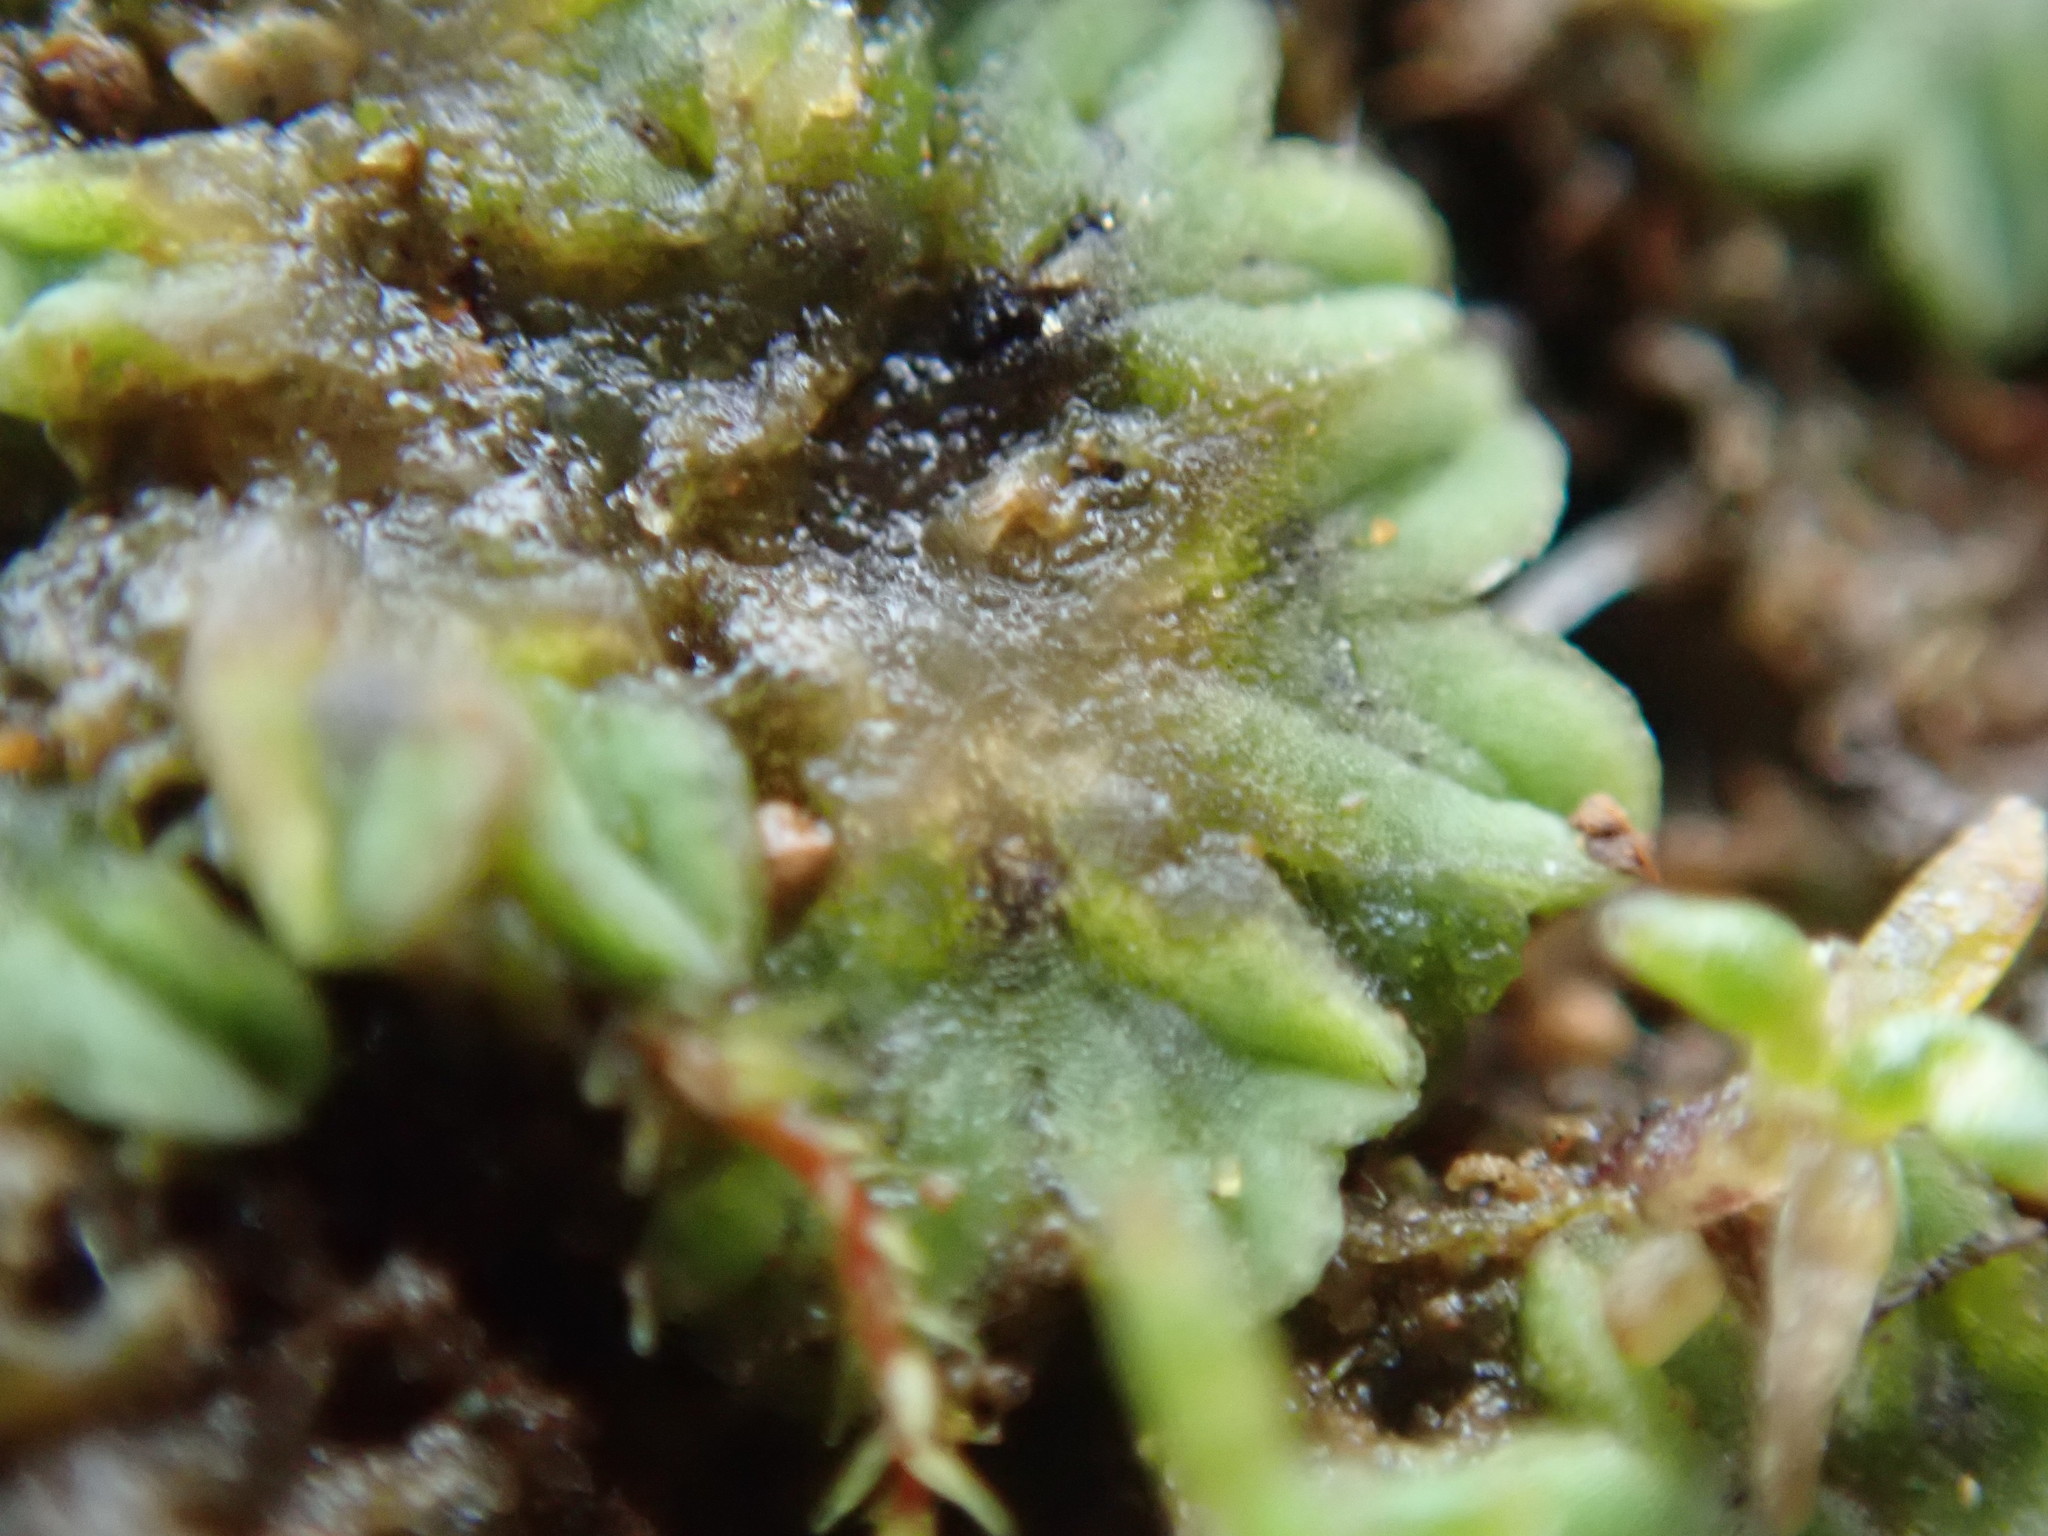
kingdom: Plantae
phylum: Marchantiophyta
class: Marchantiopsida
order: Marchantiales
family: Ricciaceae
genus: Riccia
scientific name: Riccia sorocarpa
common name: Common crystalwort
